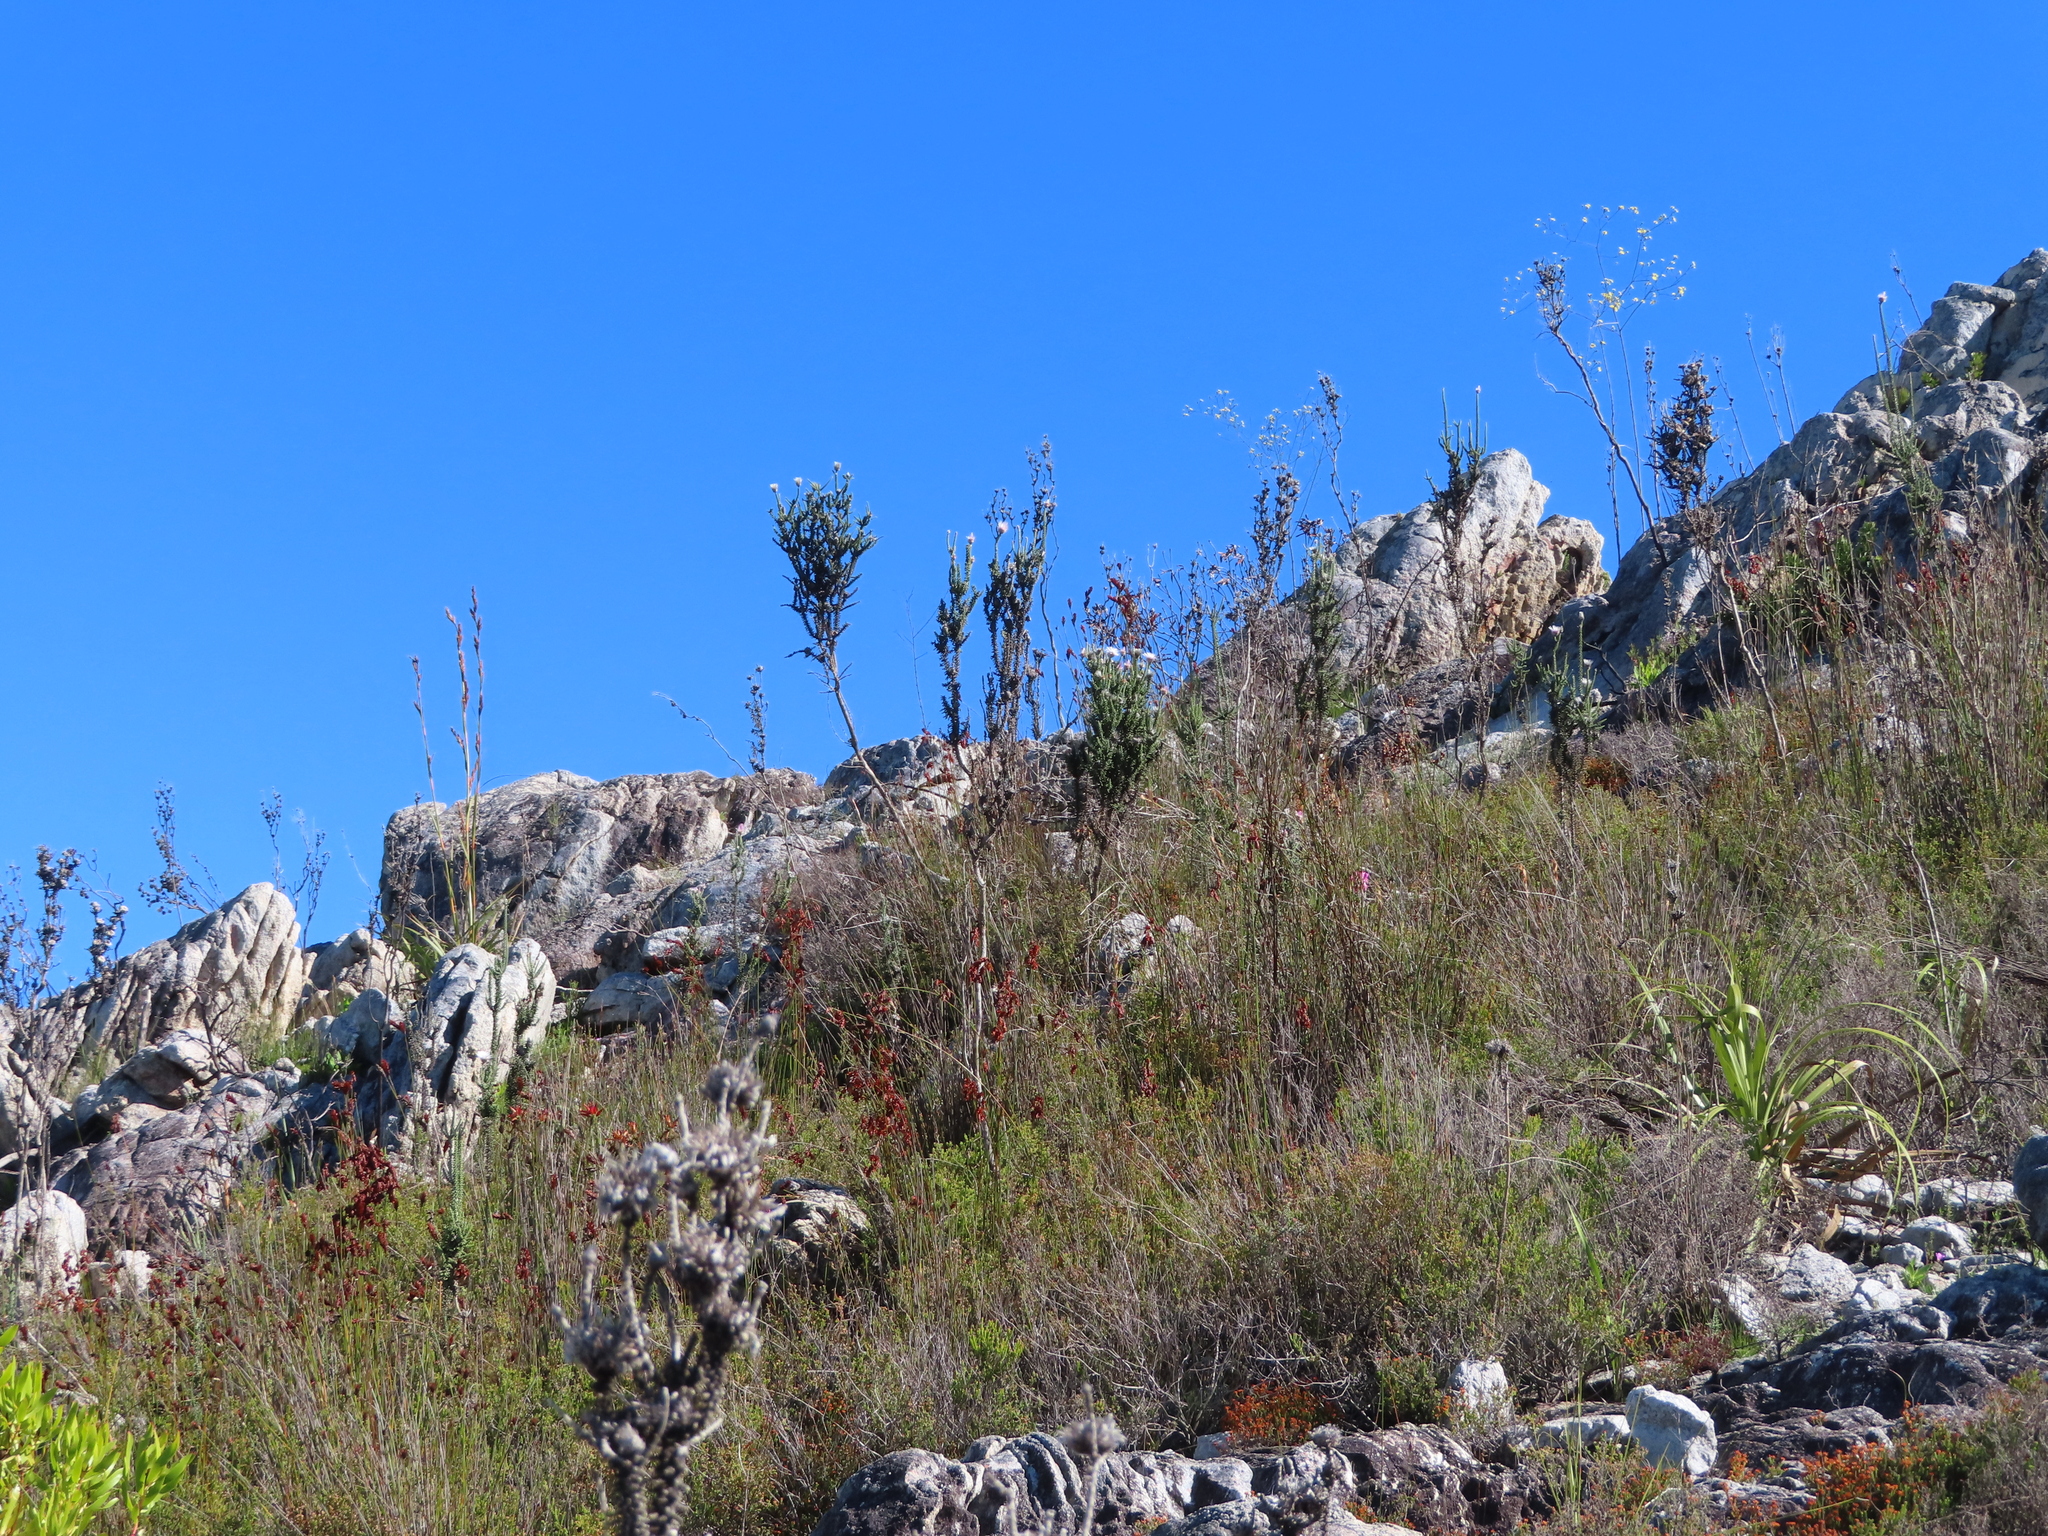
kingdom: Plantae
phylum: Tracheophyta
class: Magnoliopsida
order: Asterales
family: Asteraceae
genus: Phaenocoma
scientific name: Phaenocoma prolifera
